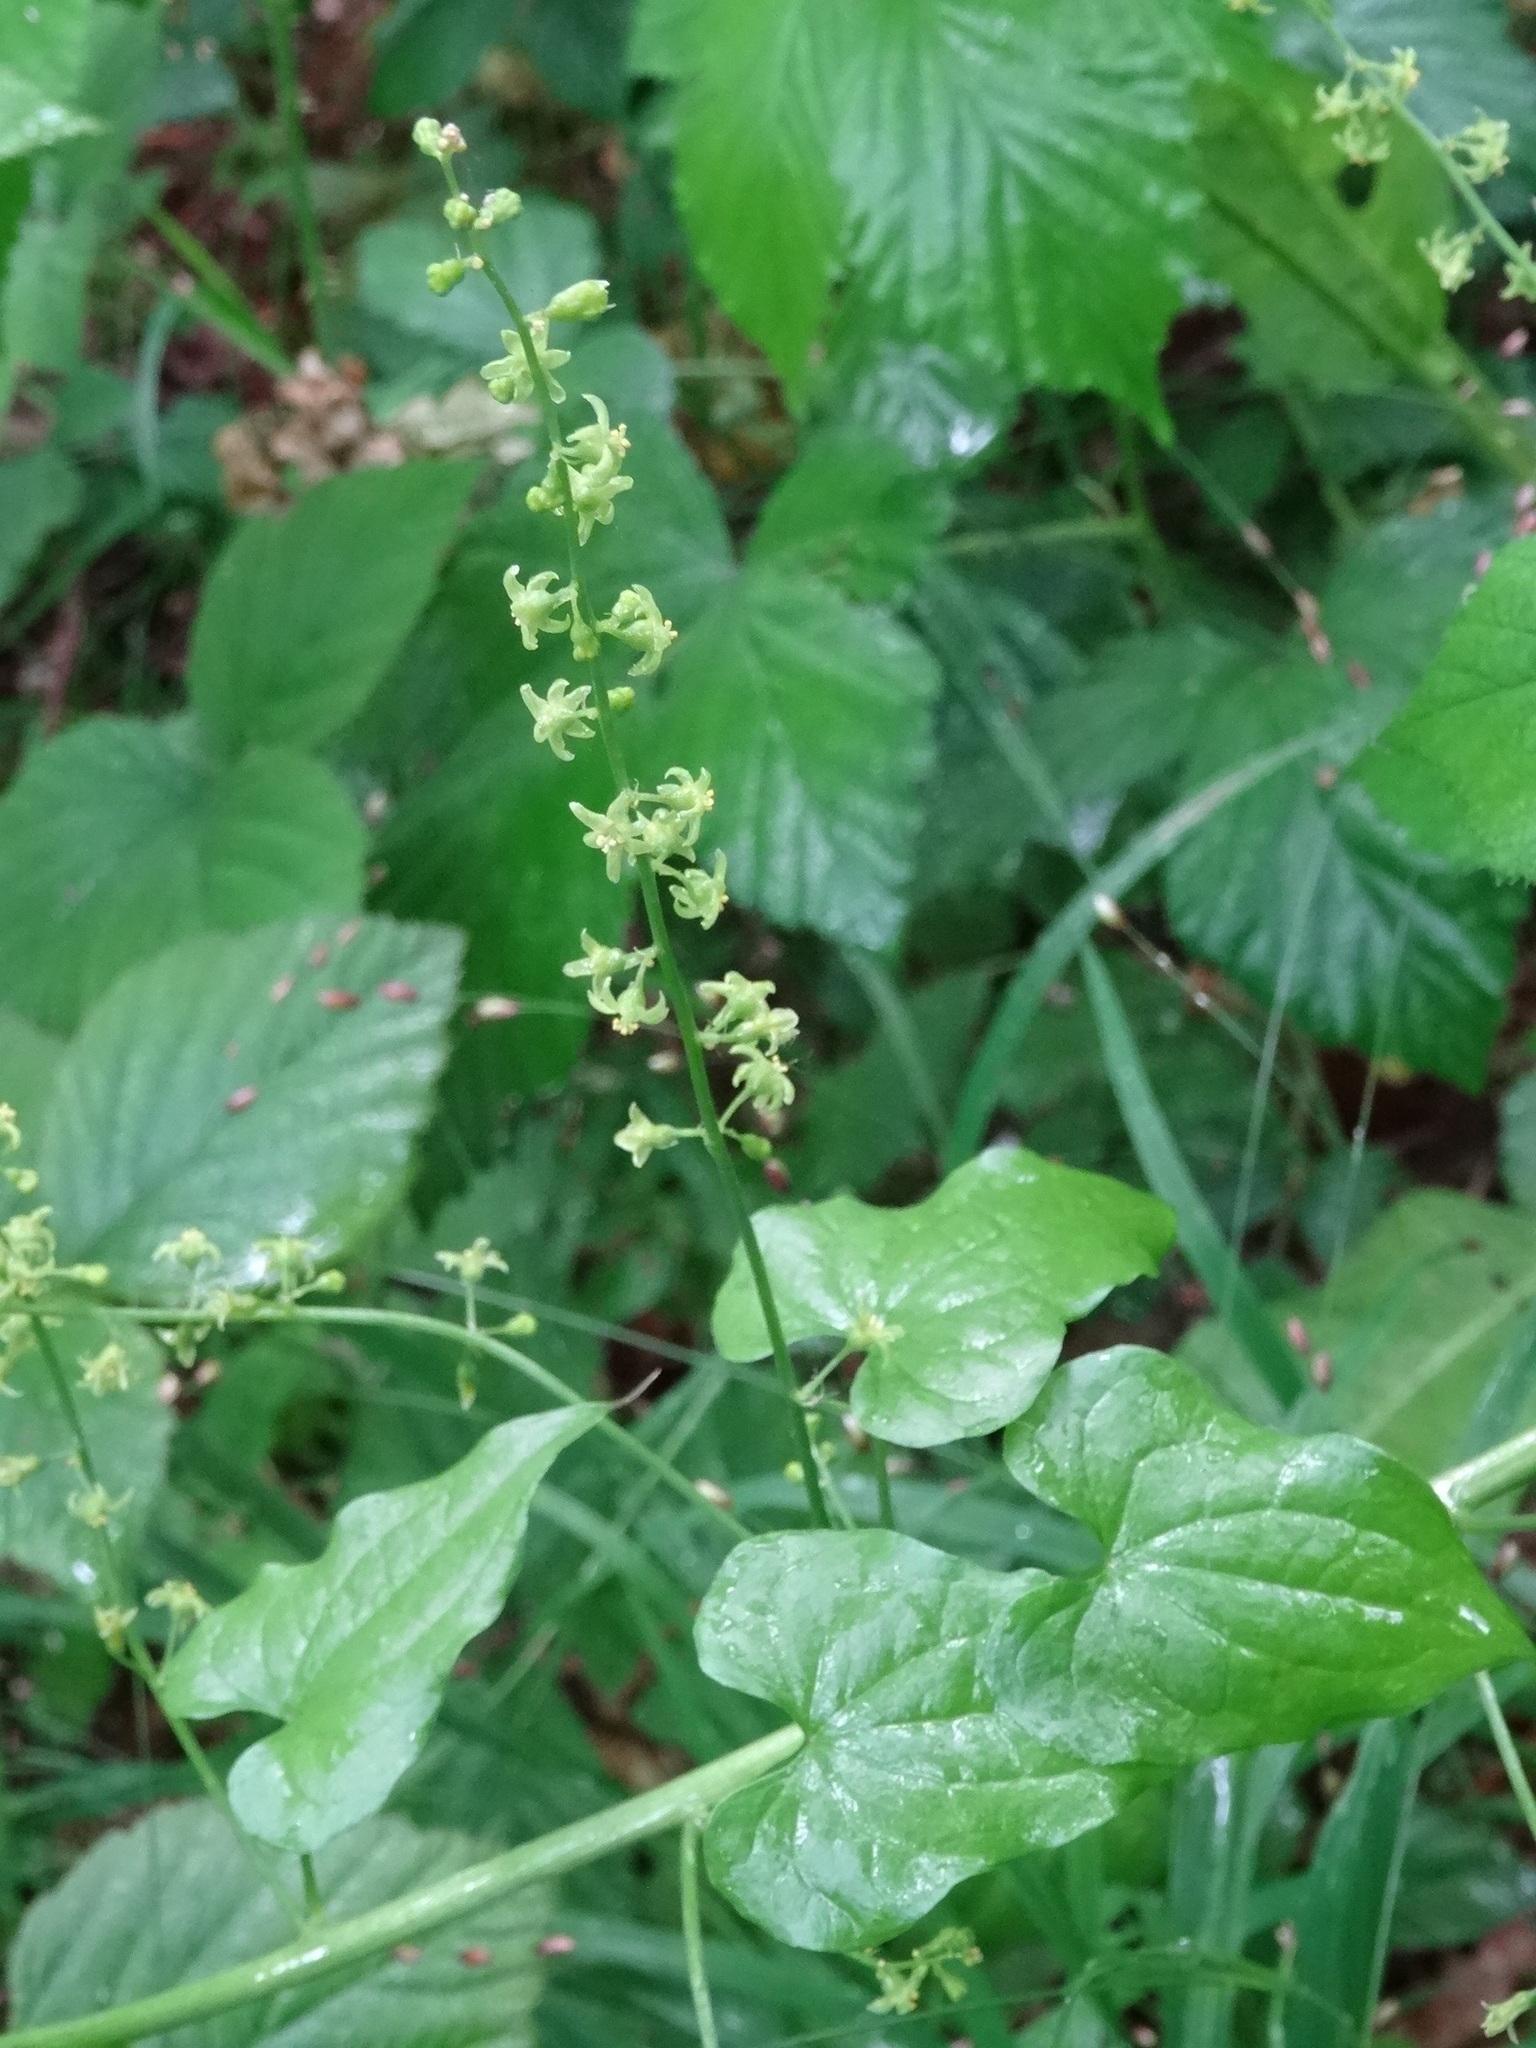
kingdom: Plantae
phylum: Tracheophyta
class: Liliopsida
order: Dioscoreales
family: Dioscoreaceae
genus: Dioscorea
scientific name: Dioscorea communis
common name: Black-bindweed
